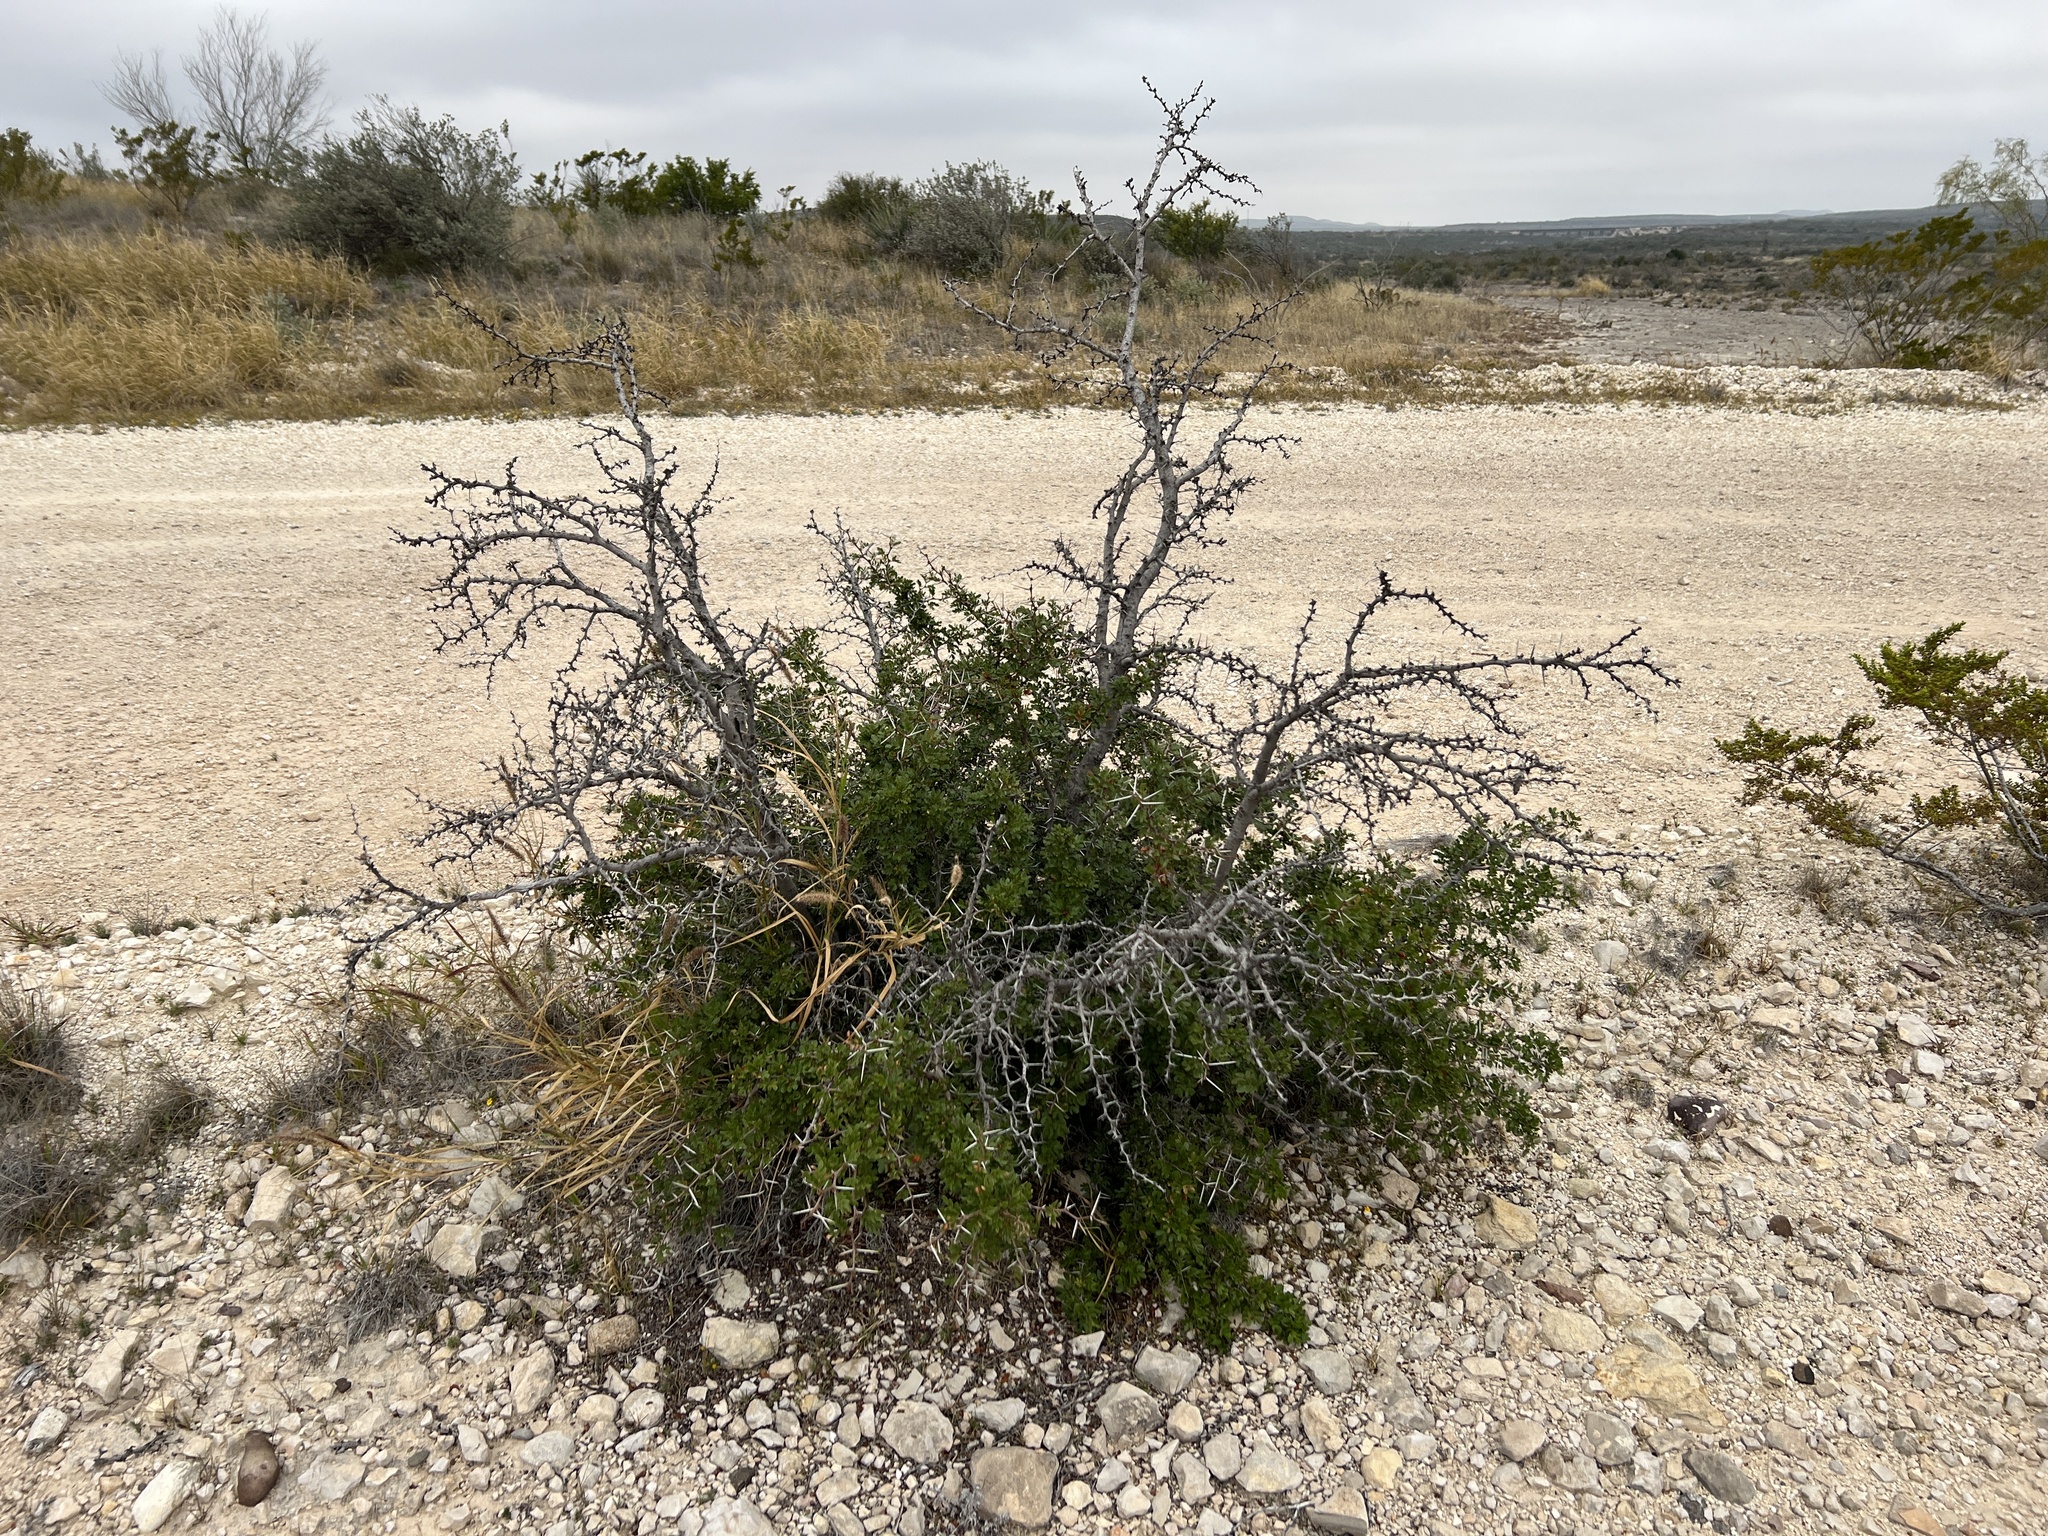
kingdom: Plantae
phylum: Tracheophyta
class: Magnoliopsida
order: Fabales
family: Fabaceae
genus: Vachellia
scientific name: Vachellia rigidula
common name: Blackbrush
